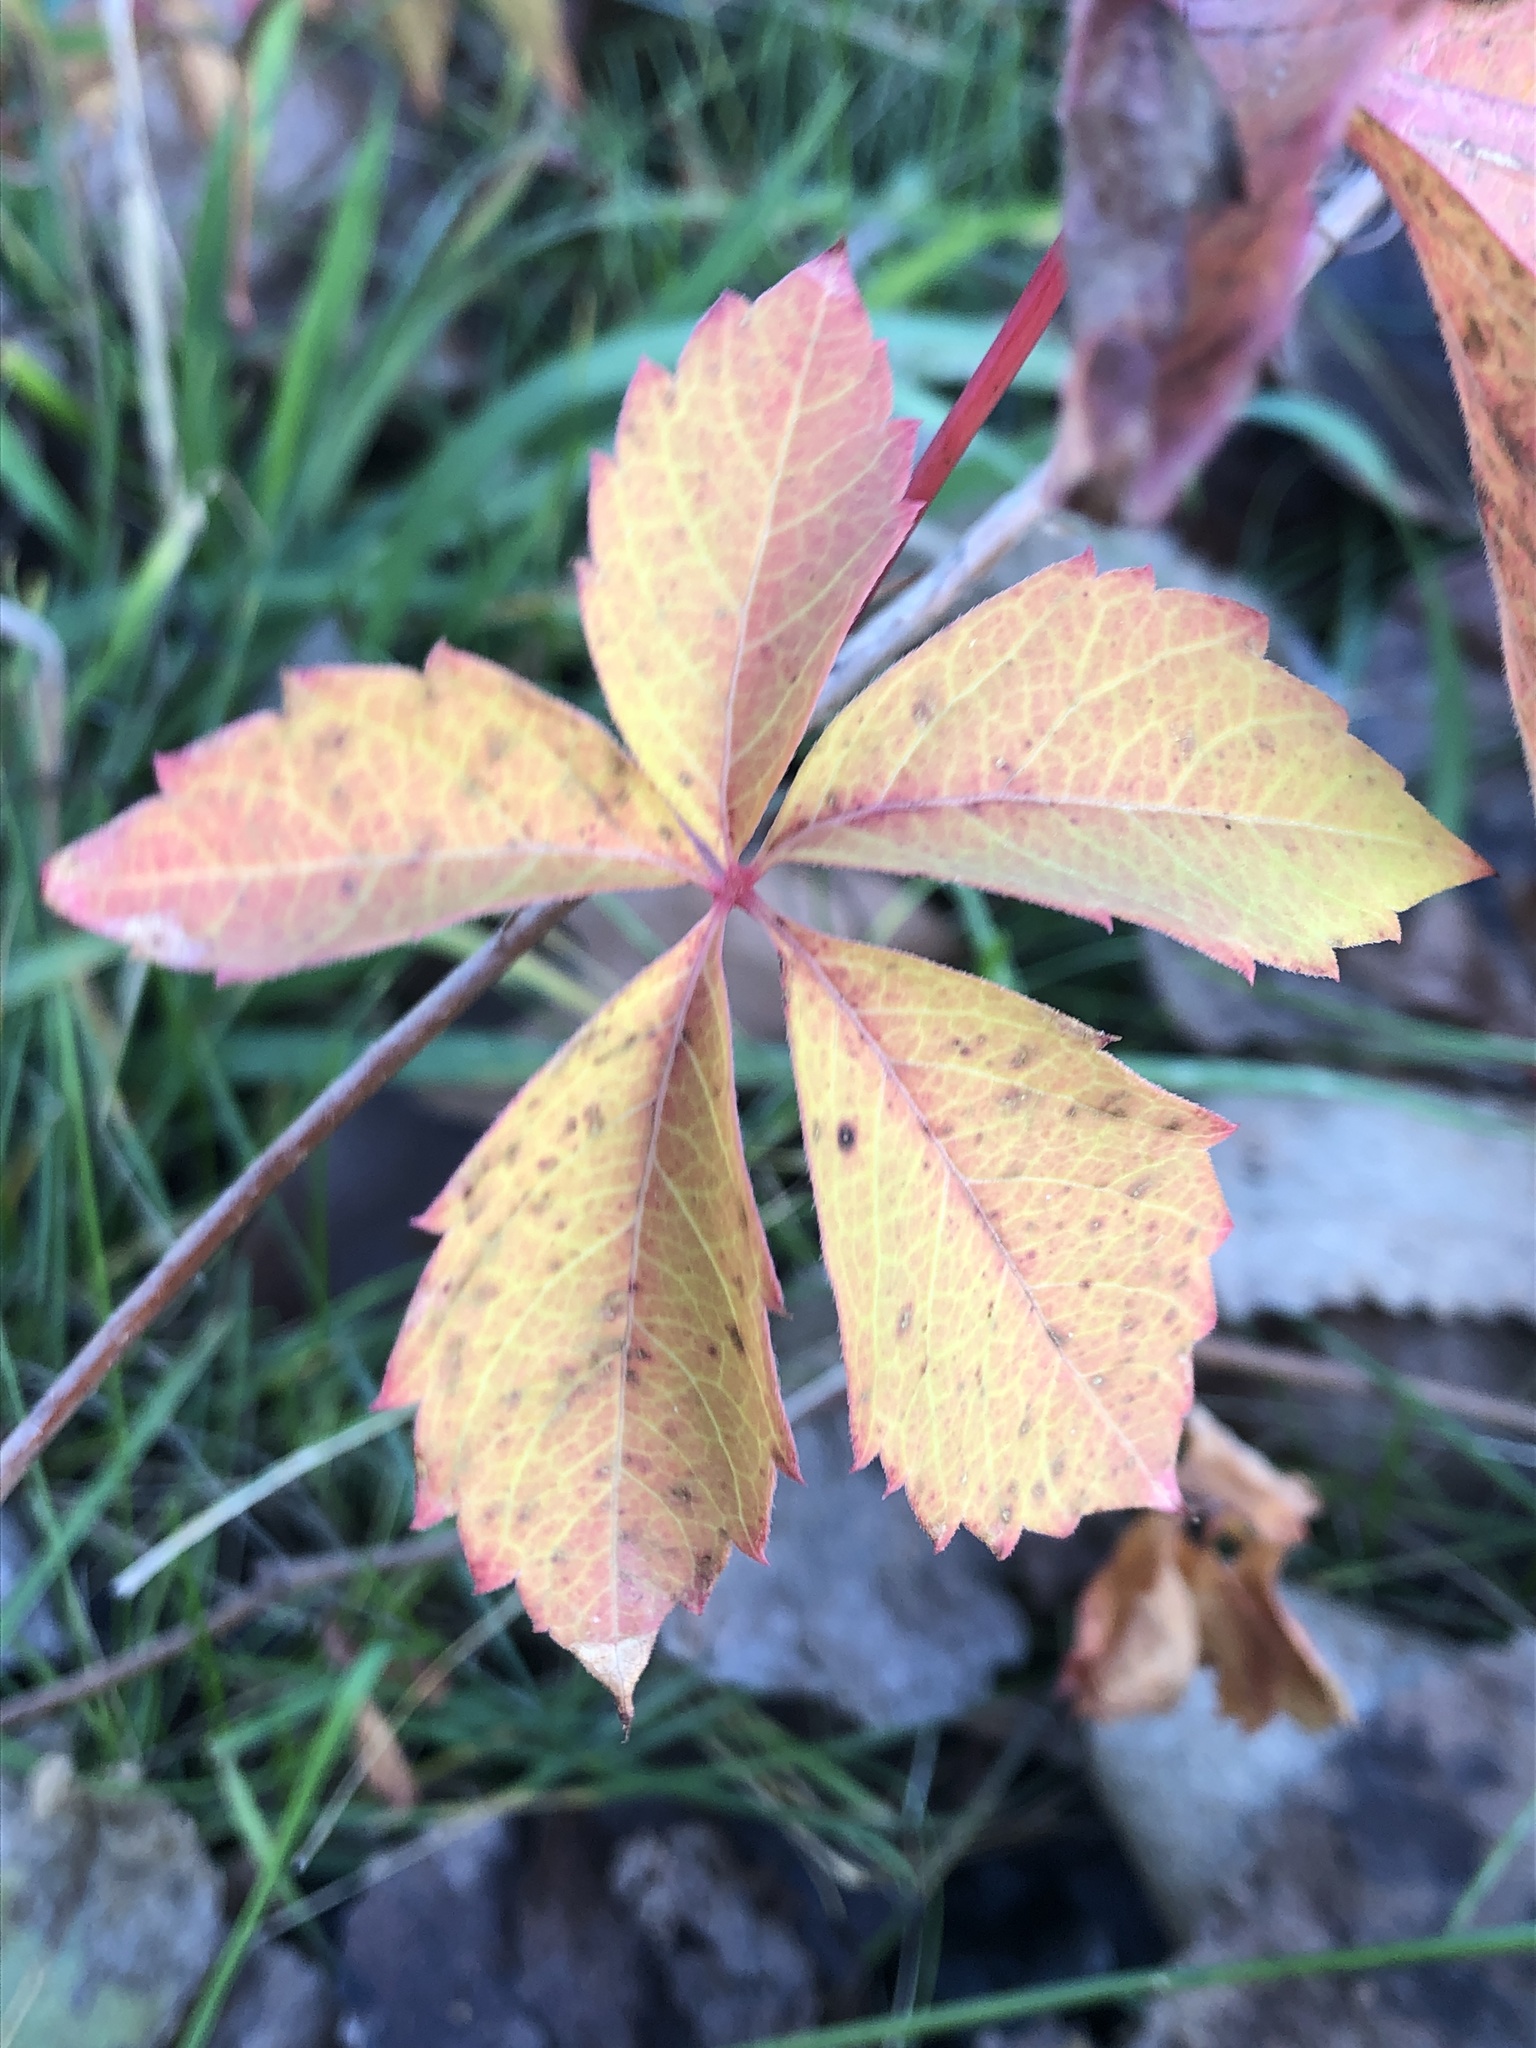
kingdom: Plantae
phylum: Tracheophyta
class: Magnoliopsida
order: Vitales
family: Vitaceae
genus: Parthenocissus
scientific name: Parthenocissus quinquefolia
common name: Virginia-creeper
